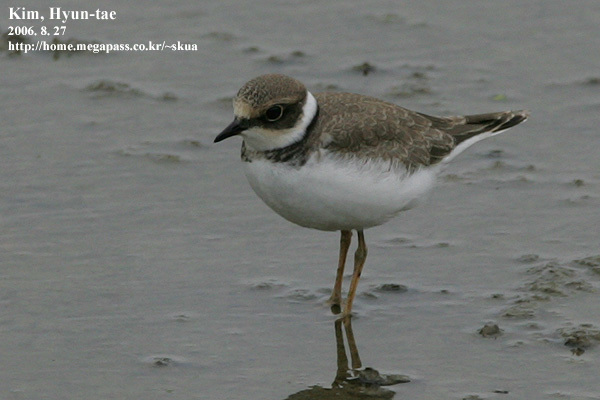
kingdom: Animalia
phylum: Chordata
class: Aves
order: Charadriiformes
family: Charadriidae
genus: Charadrius
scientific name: Charadrius dubius
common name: Little ringed plover
